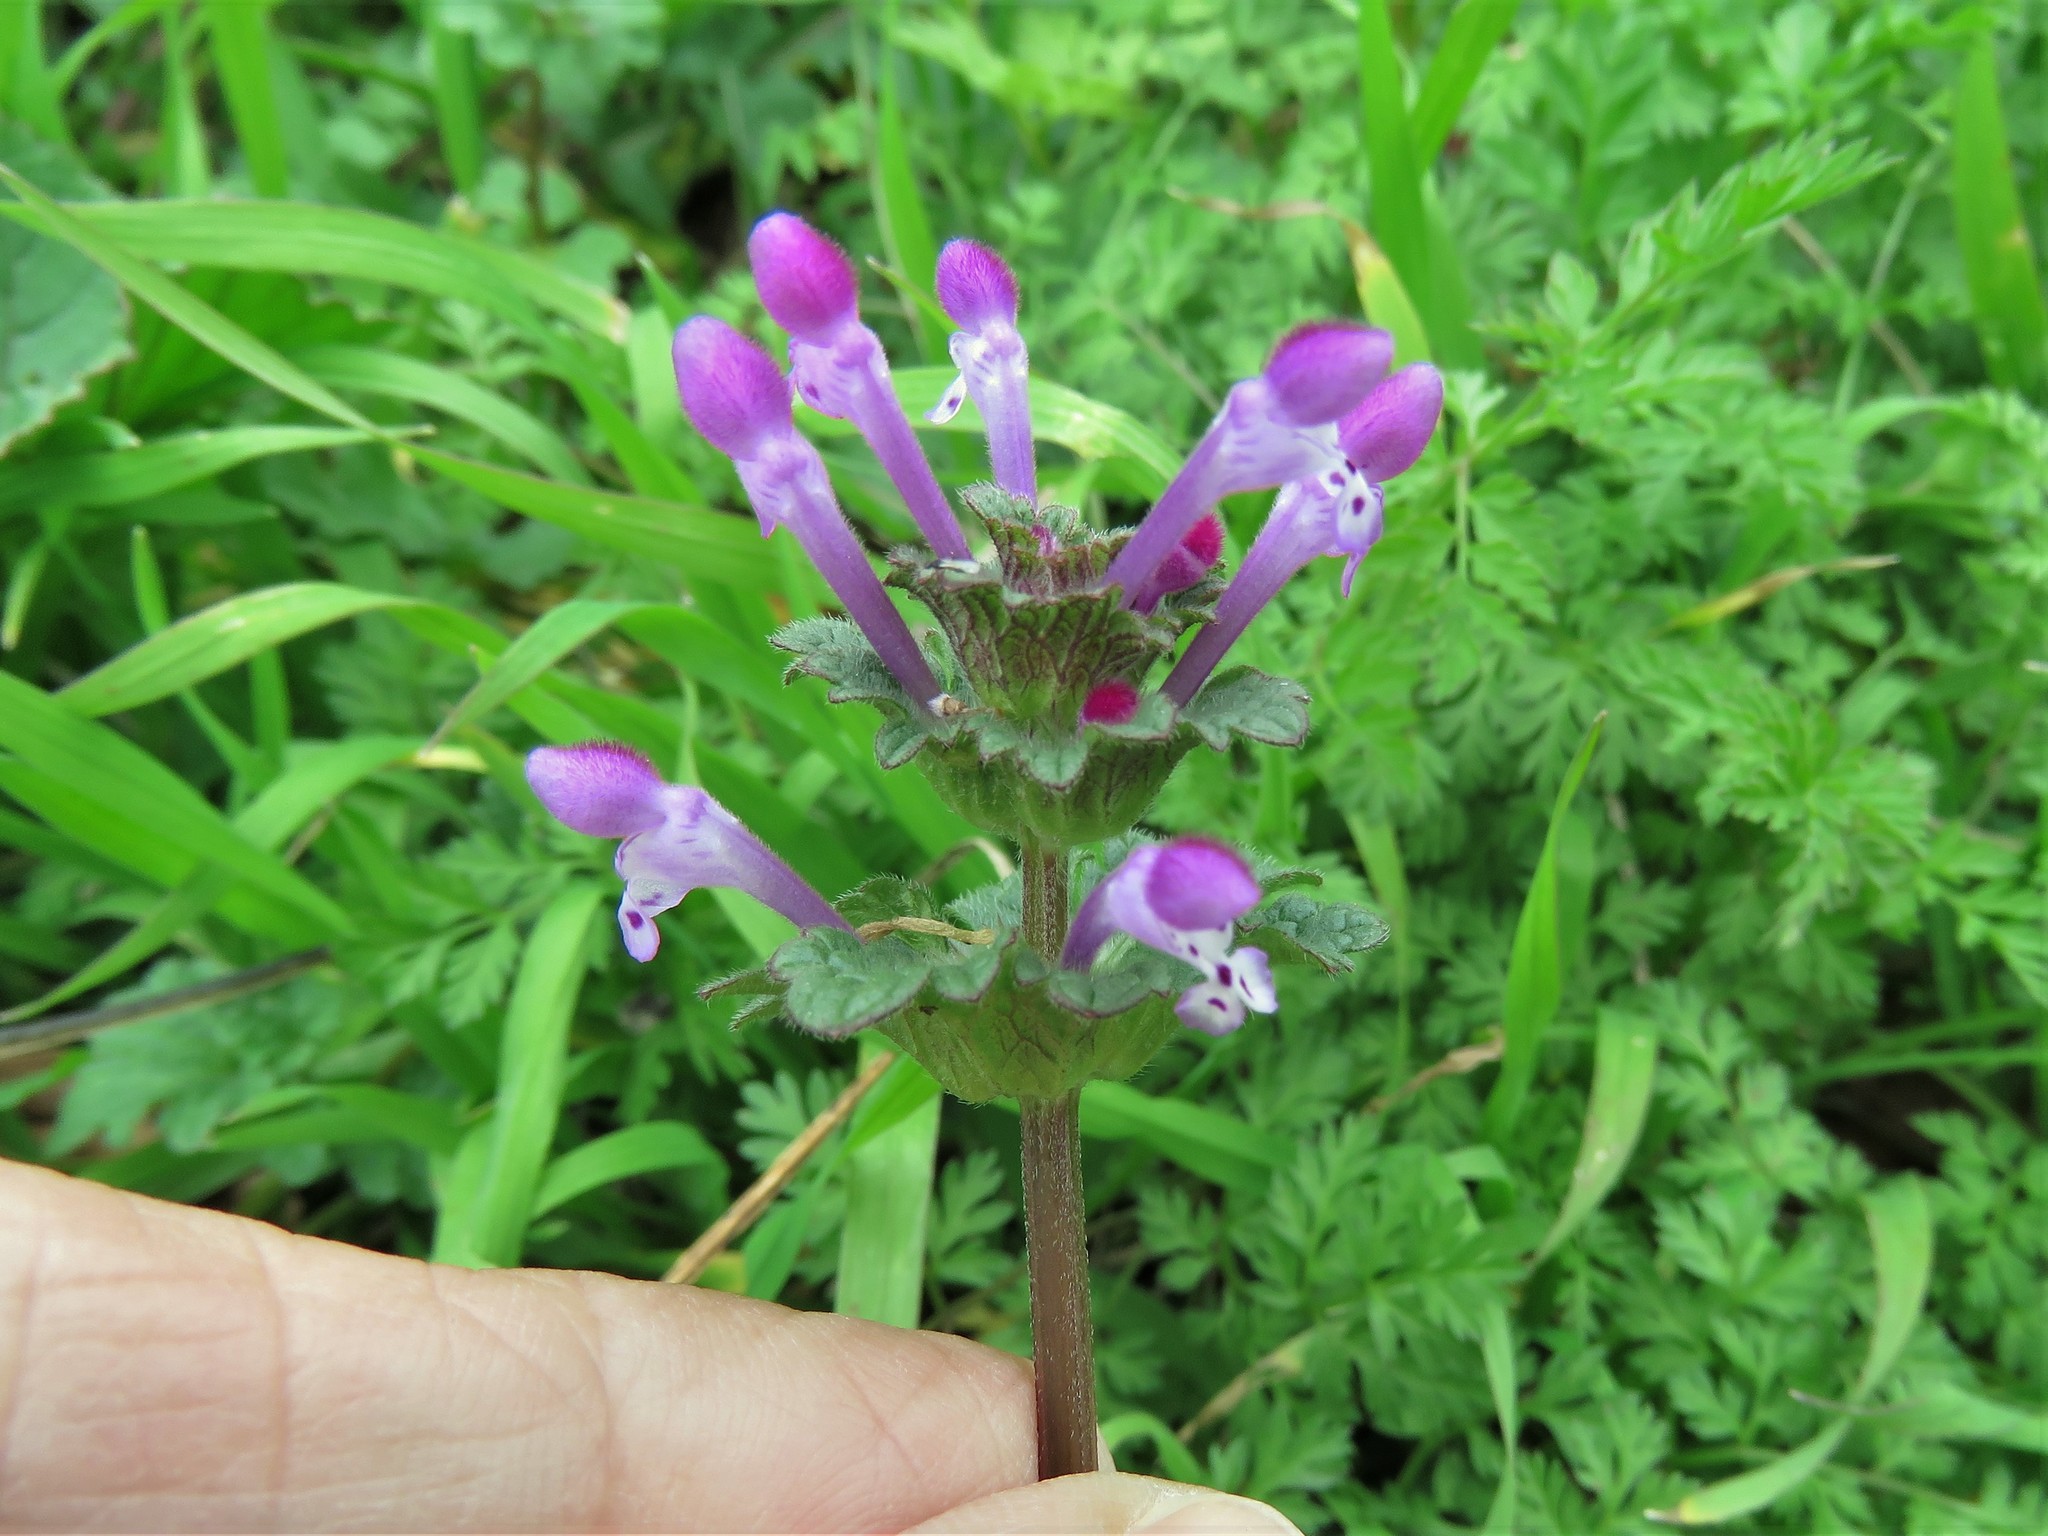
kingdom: Plantae
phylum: Tracheophyta
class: Magnoliopsida
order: Lamiales
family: Lamiaceae
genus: Lamium
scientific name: Lamium amplexicaule
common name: Henbit dead-nettle
